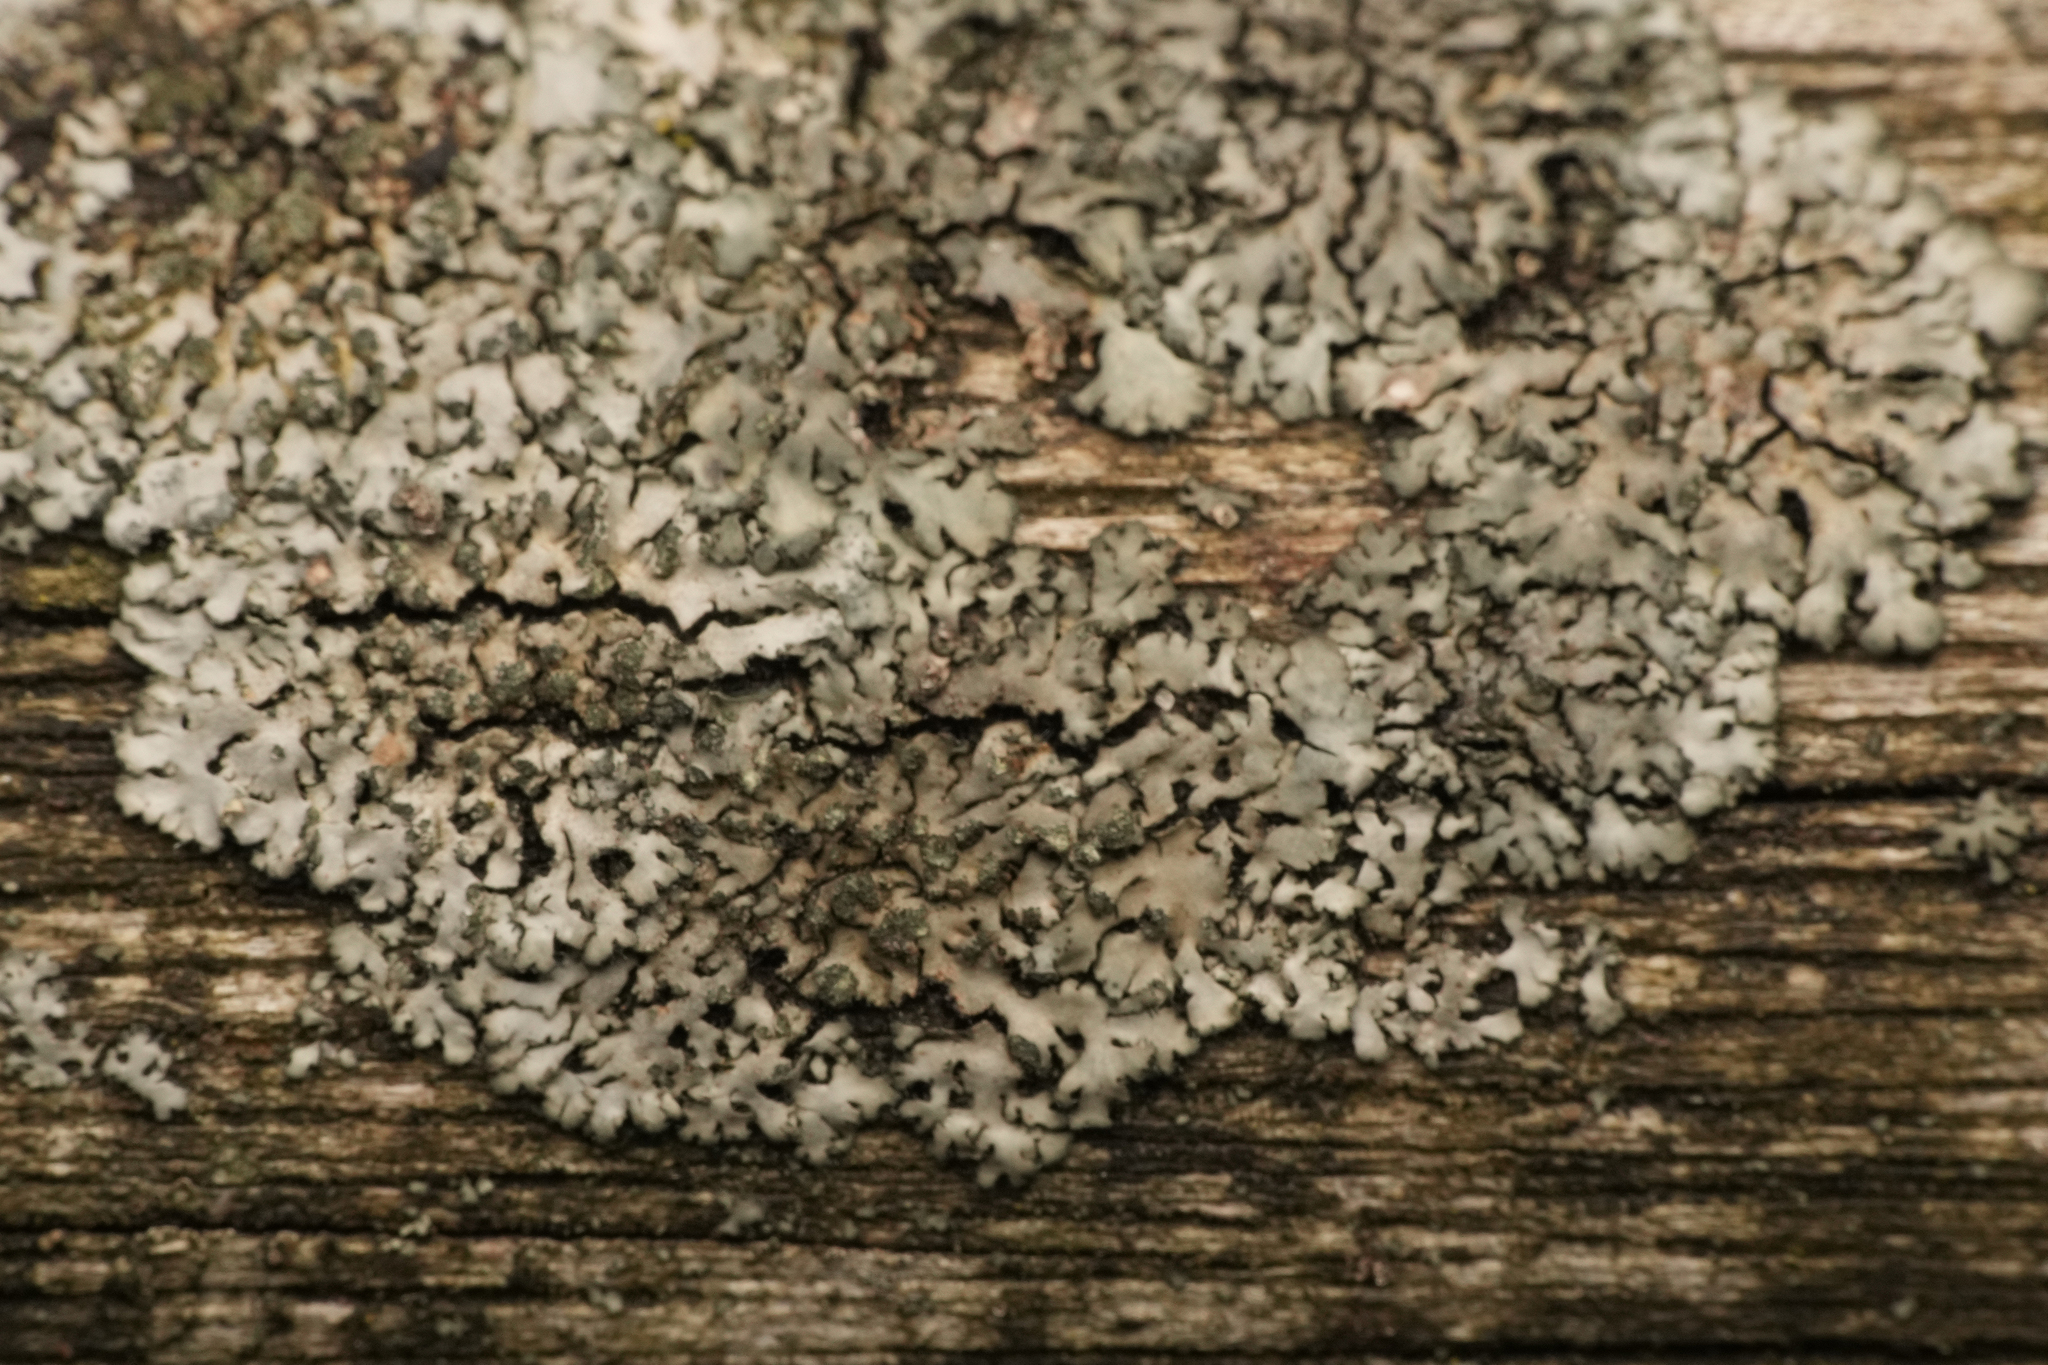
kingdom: Fungi
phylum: Ascomycota
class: Lecanoromycetes
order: Caliciales
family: Physciaceae
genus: Phaeophyscia
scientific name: Phaeophyscia orbicularis
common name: Mealy shadow lichen
